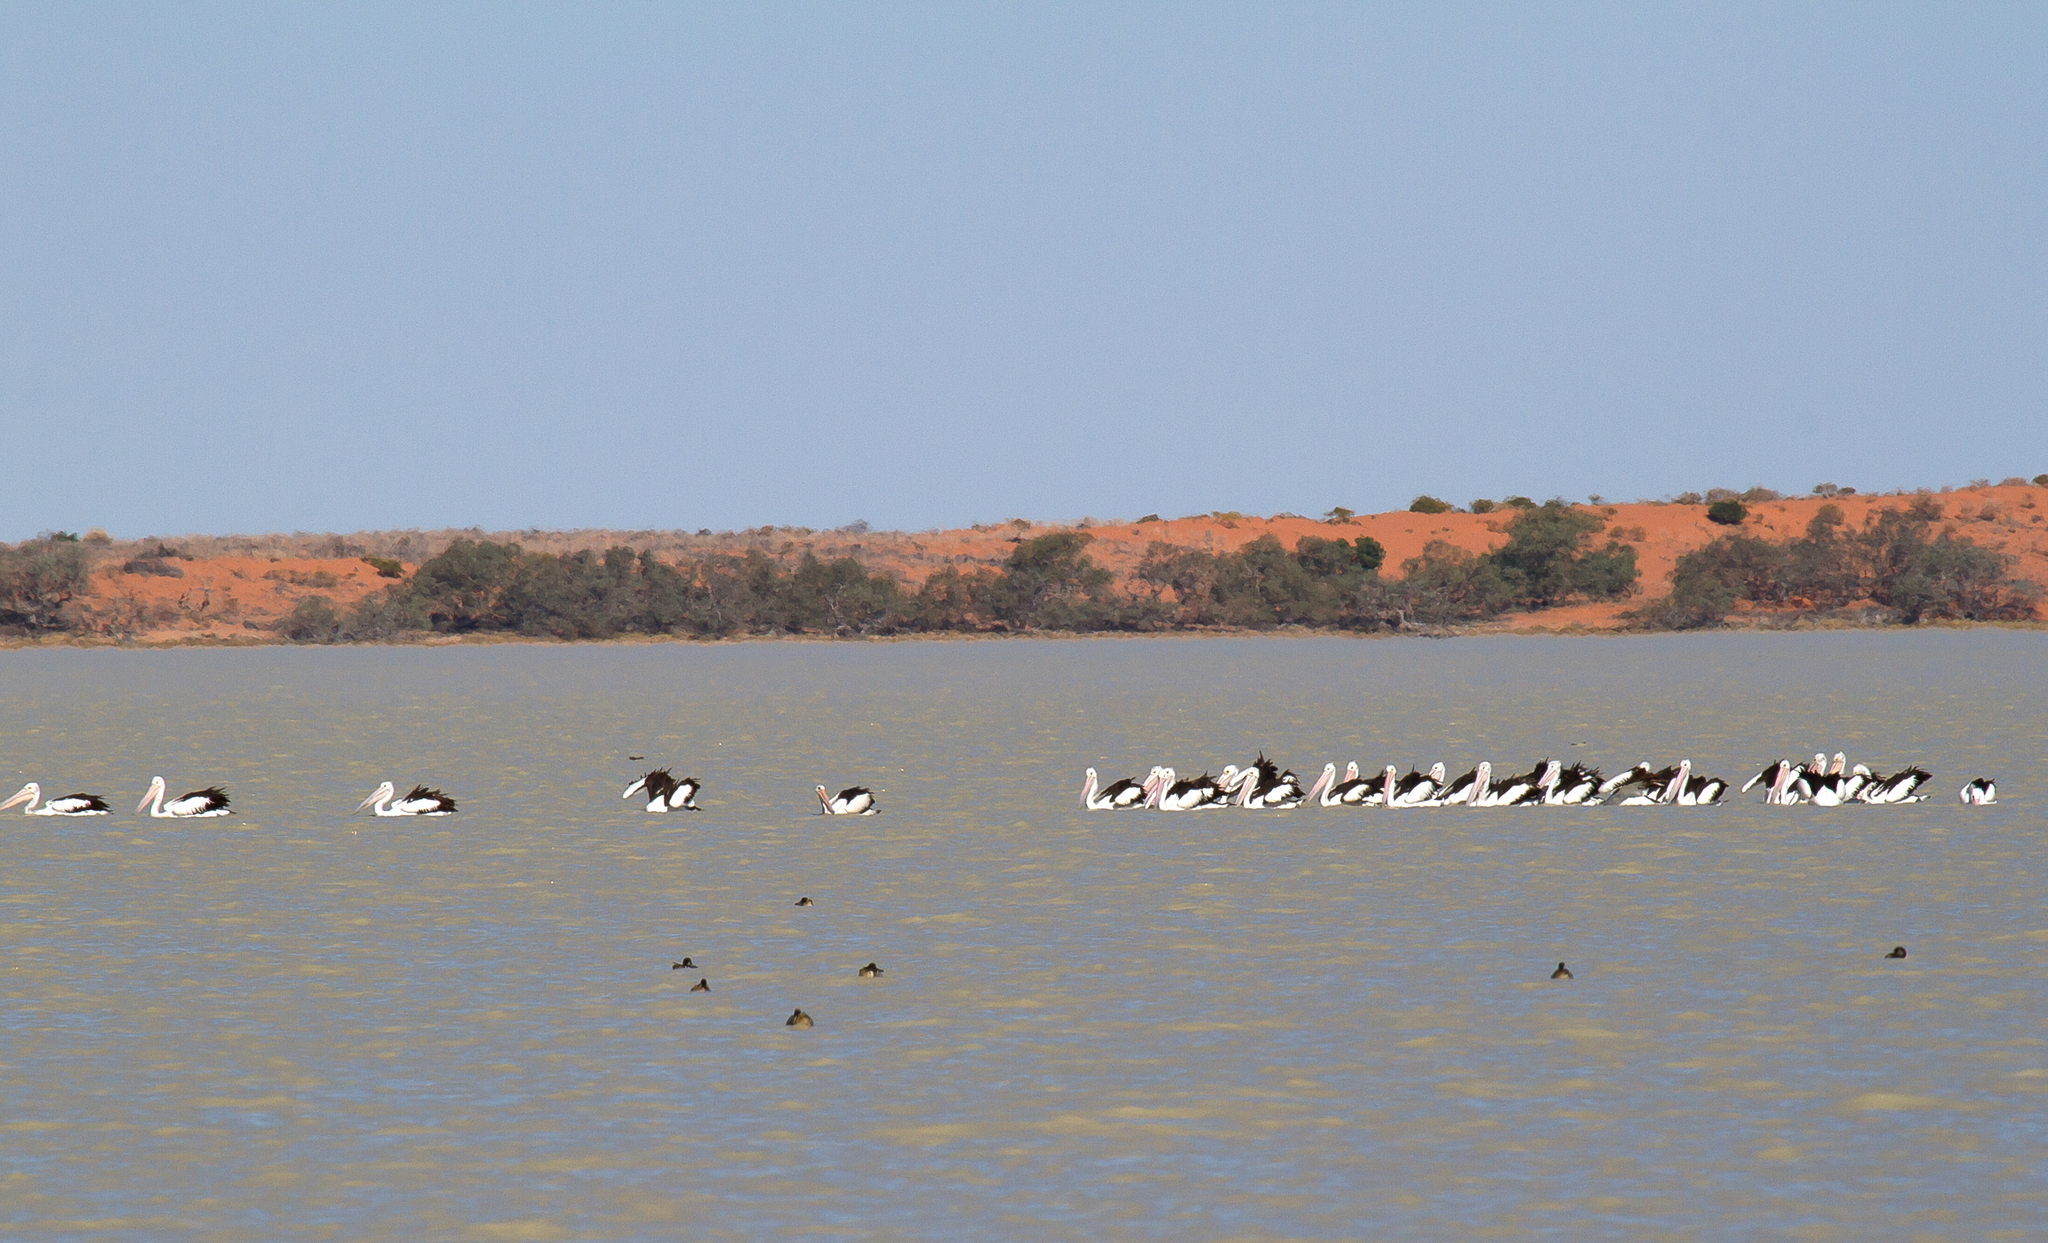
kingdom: Animalia
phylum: Chordata
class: Aves
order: Pelecaniformes
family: Pelecanidae
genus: Pelecanus
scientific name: Pelecanus conspicillatus
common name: Australian pelican
